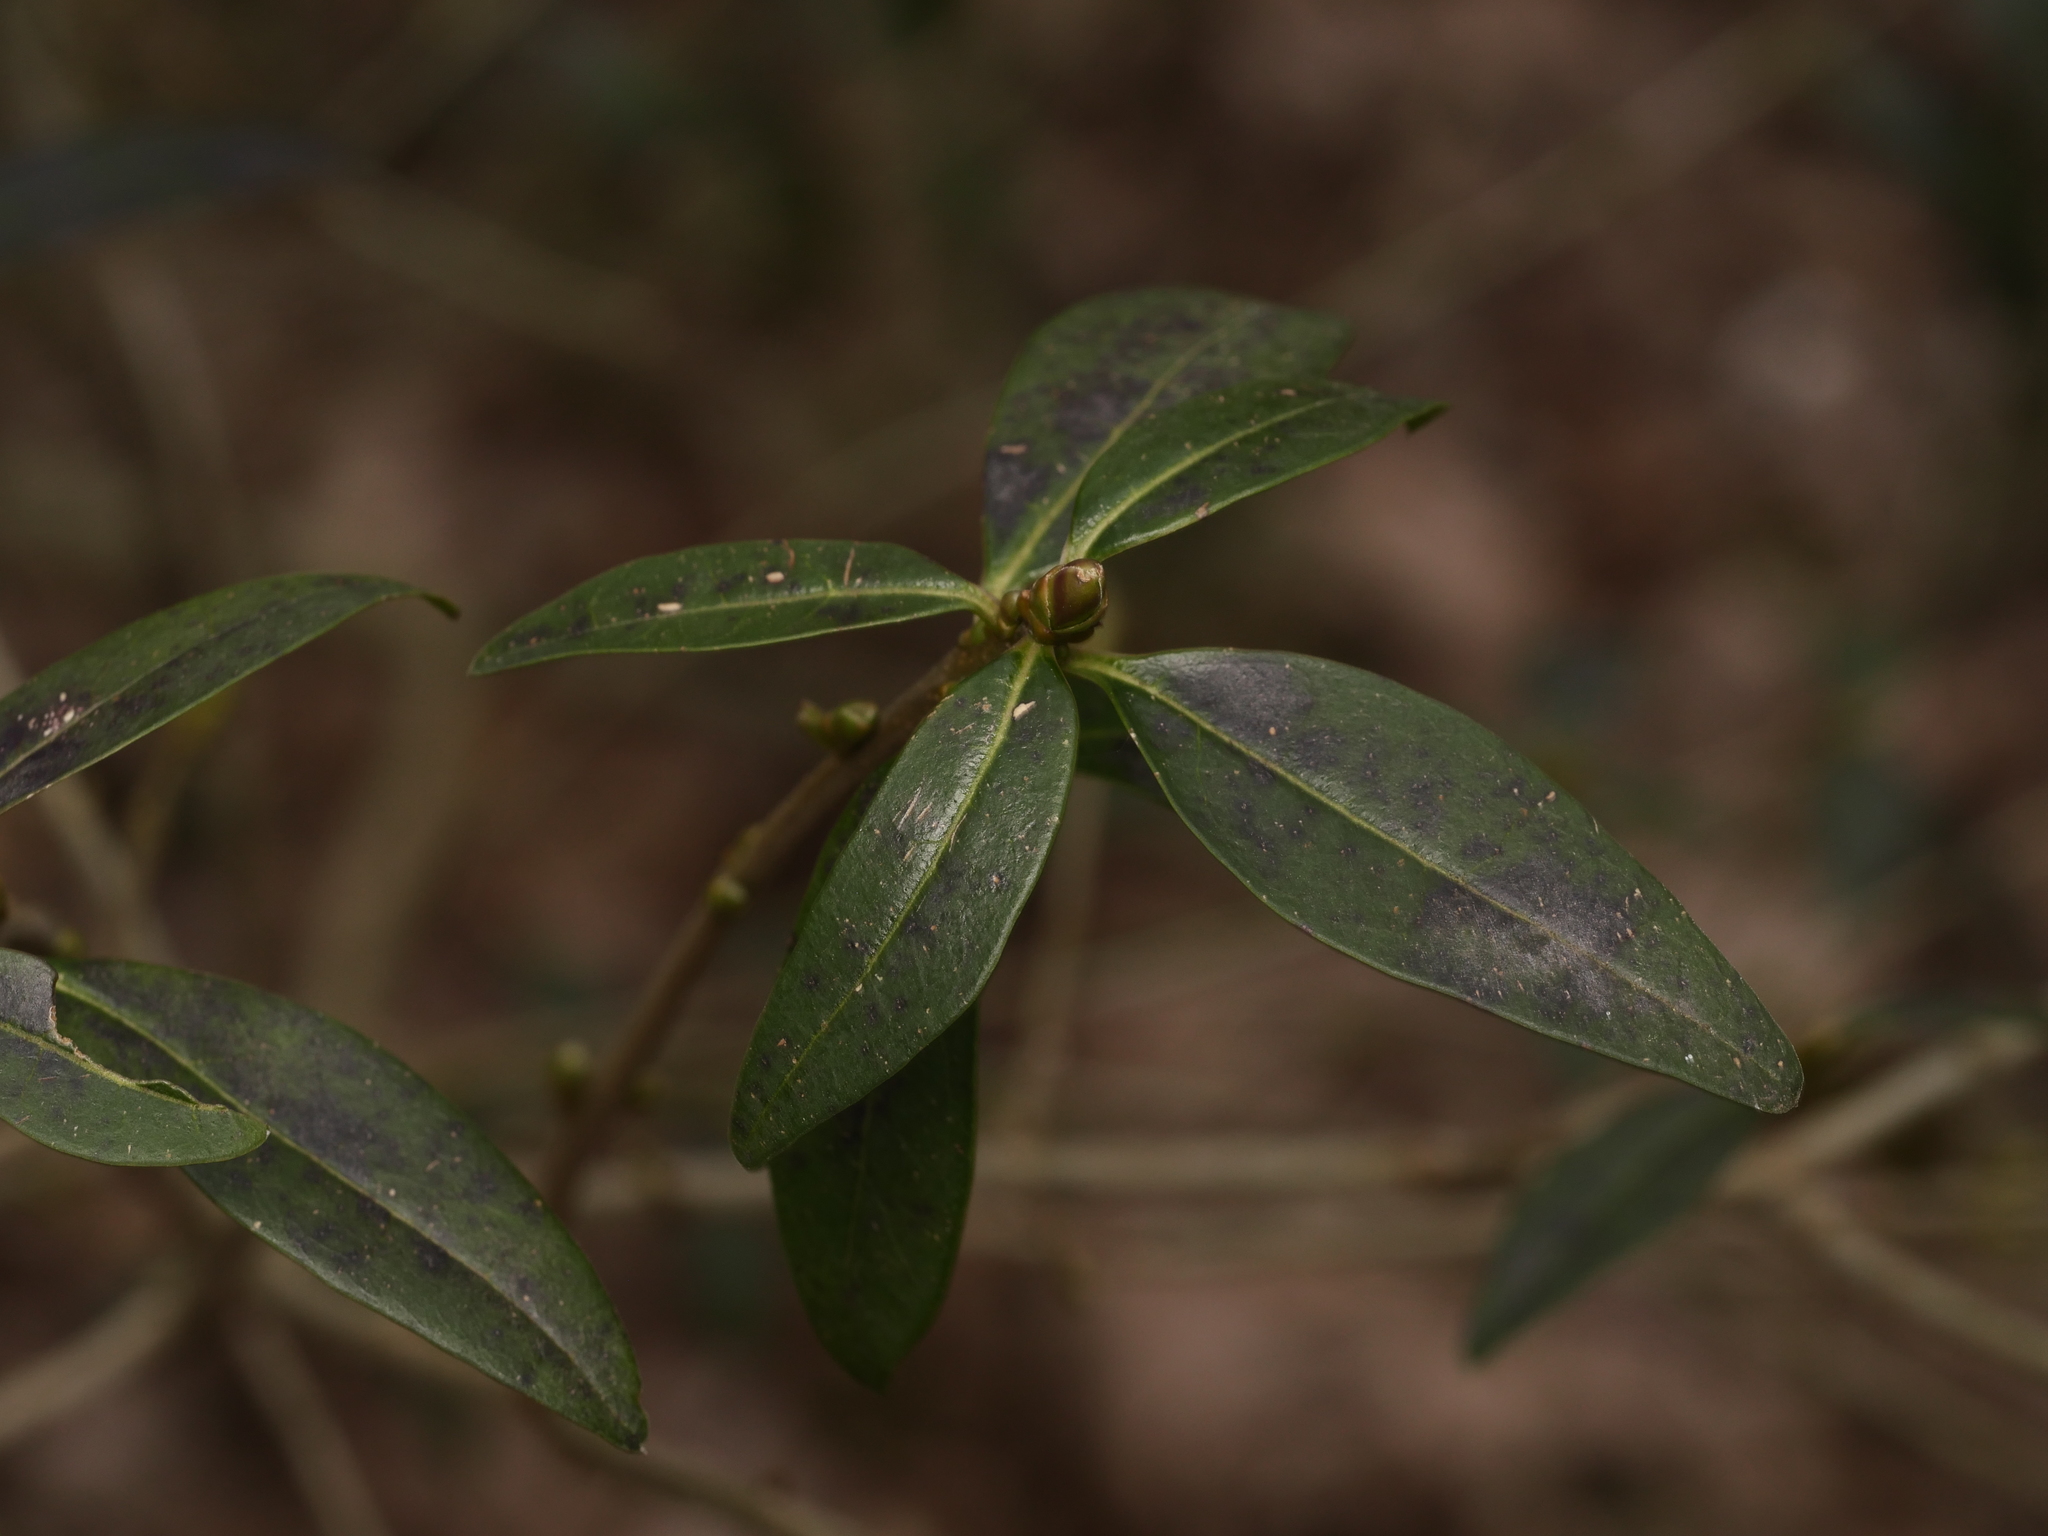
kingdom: Plantae
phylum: Tracheophyta
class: Magnoliopsida
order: Lamiales
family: Oleaceae
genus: Ligustrum
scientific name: Ligustrum vulgare
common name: Wild privet
